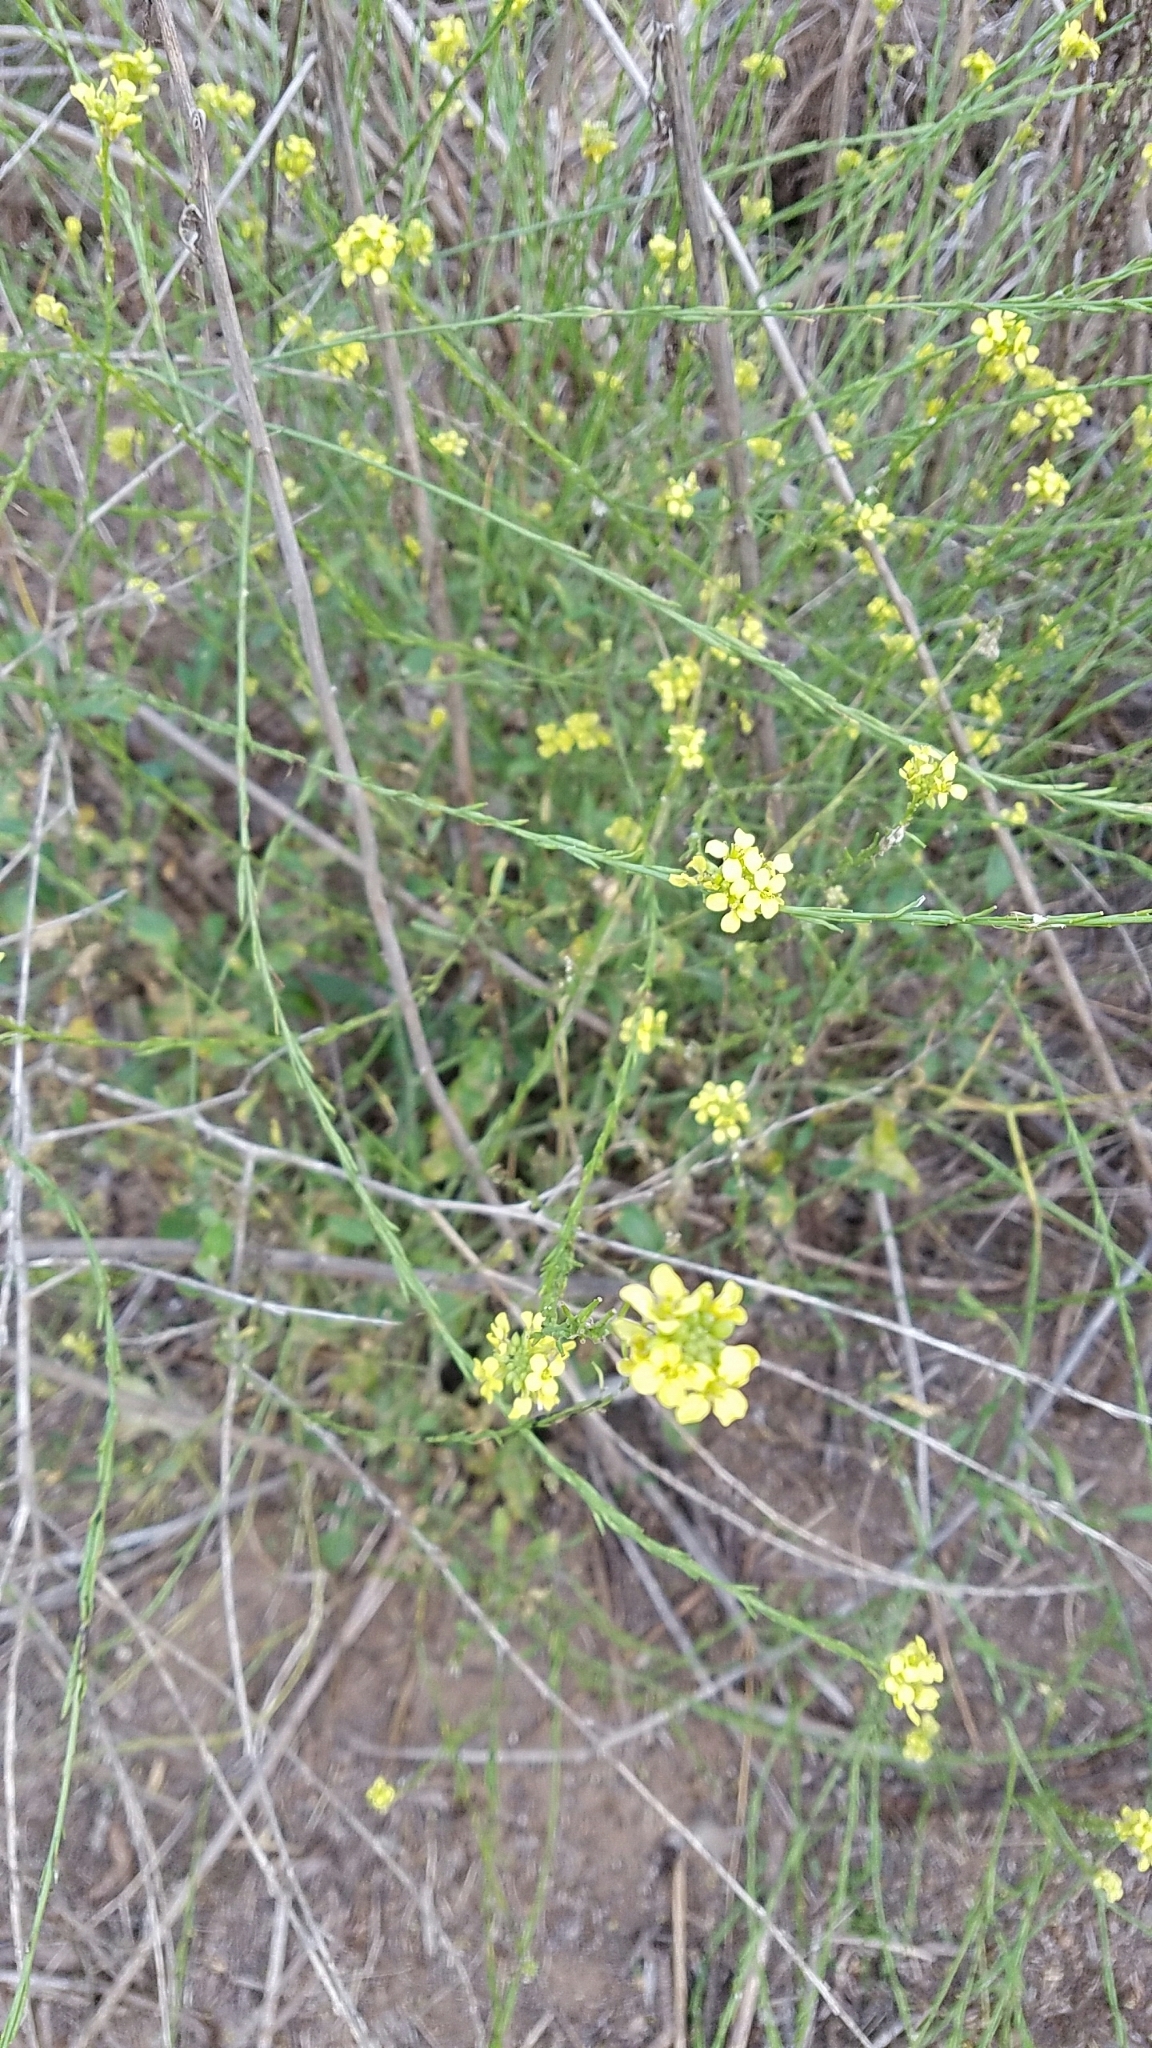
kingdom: Plantae
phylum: Tracheophyta
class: Magnoliopsida
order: Brassicales
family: Brassicaceae
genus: Hirschfeldia
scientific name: Hirschfeldia incana
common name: Hoary mustard
